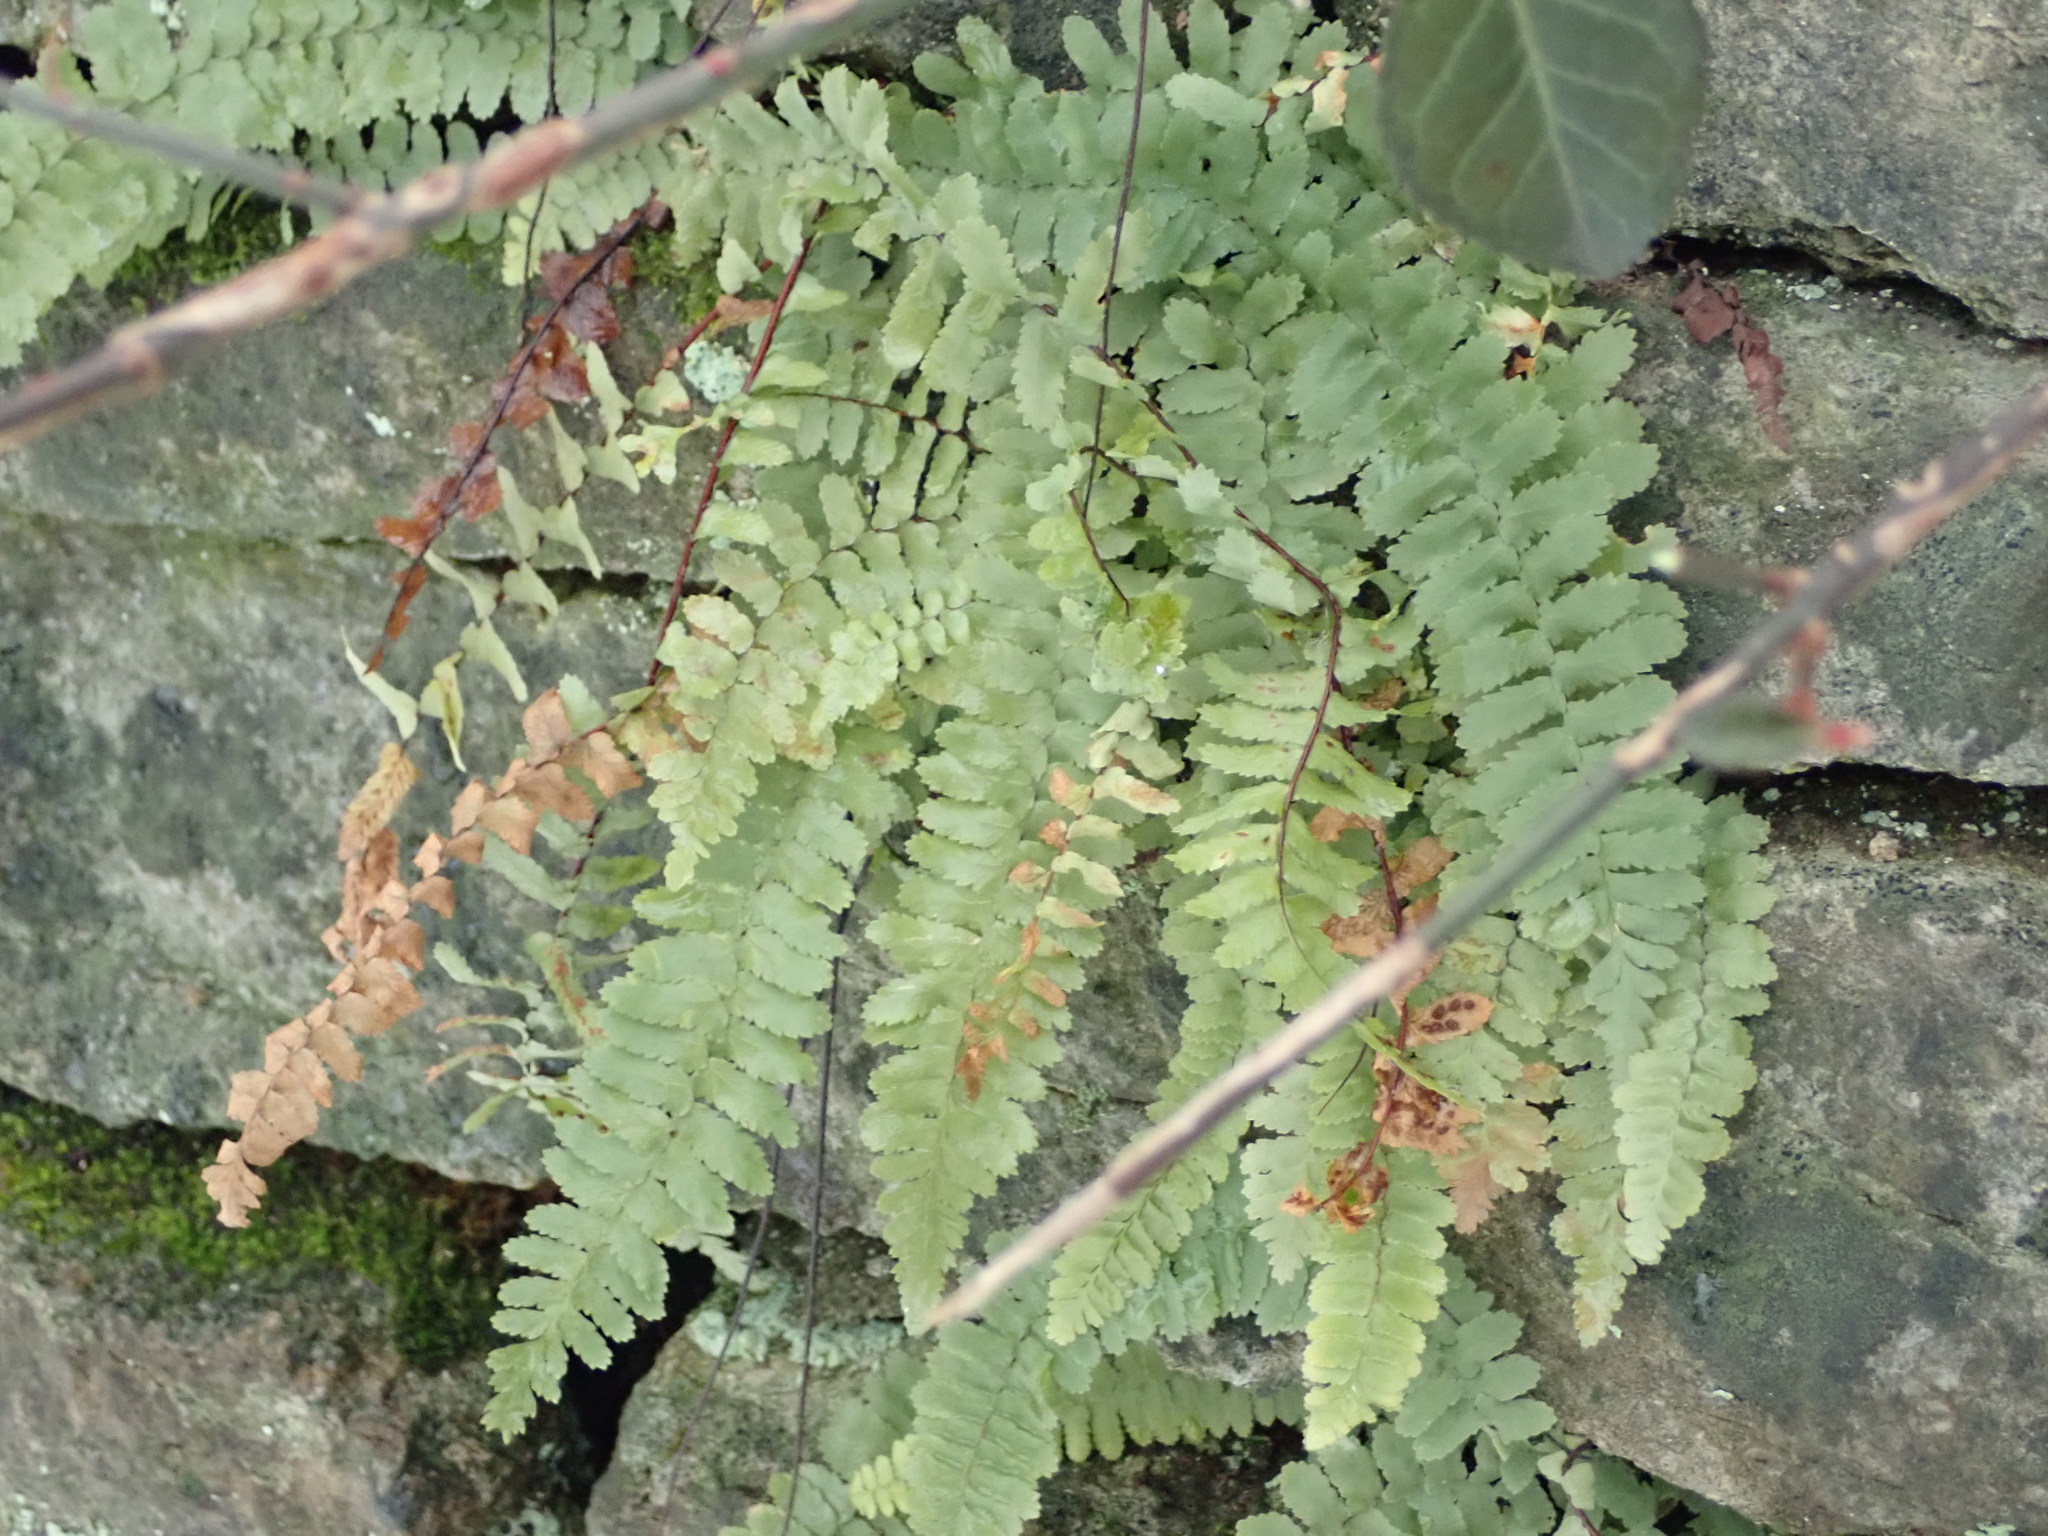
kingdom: Plantae
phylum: Tracheophyta
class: Polypodiopsida
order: Polypodiales
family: Aspleniaceae
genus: Asplenium
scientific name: Asplenium platyneuron
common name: Ebony spleenwort
